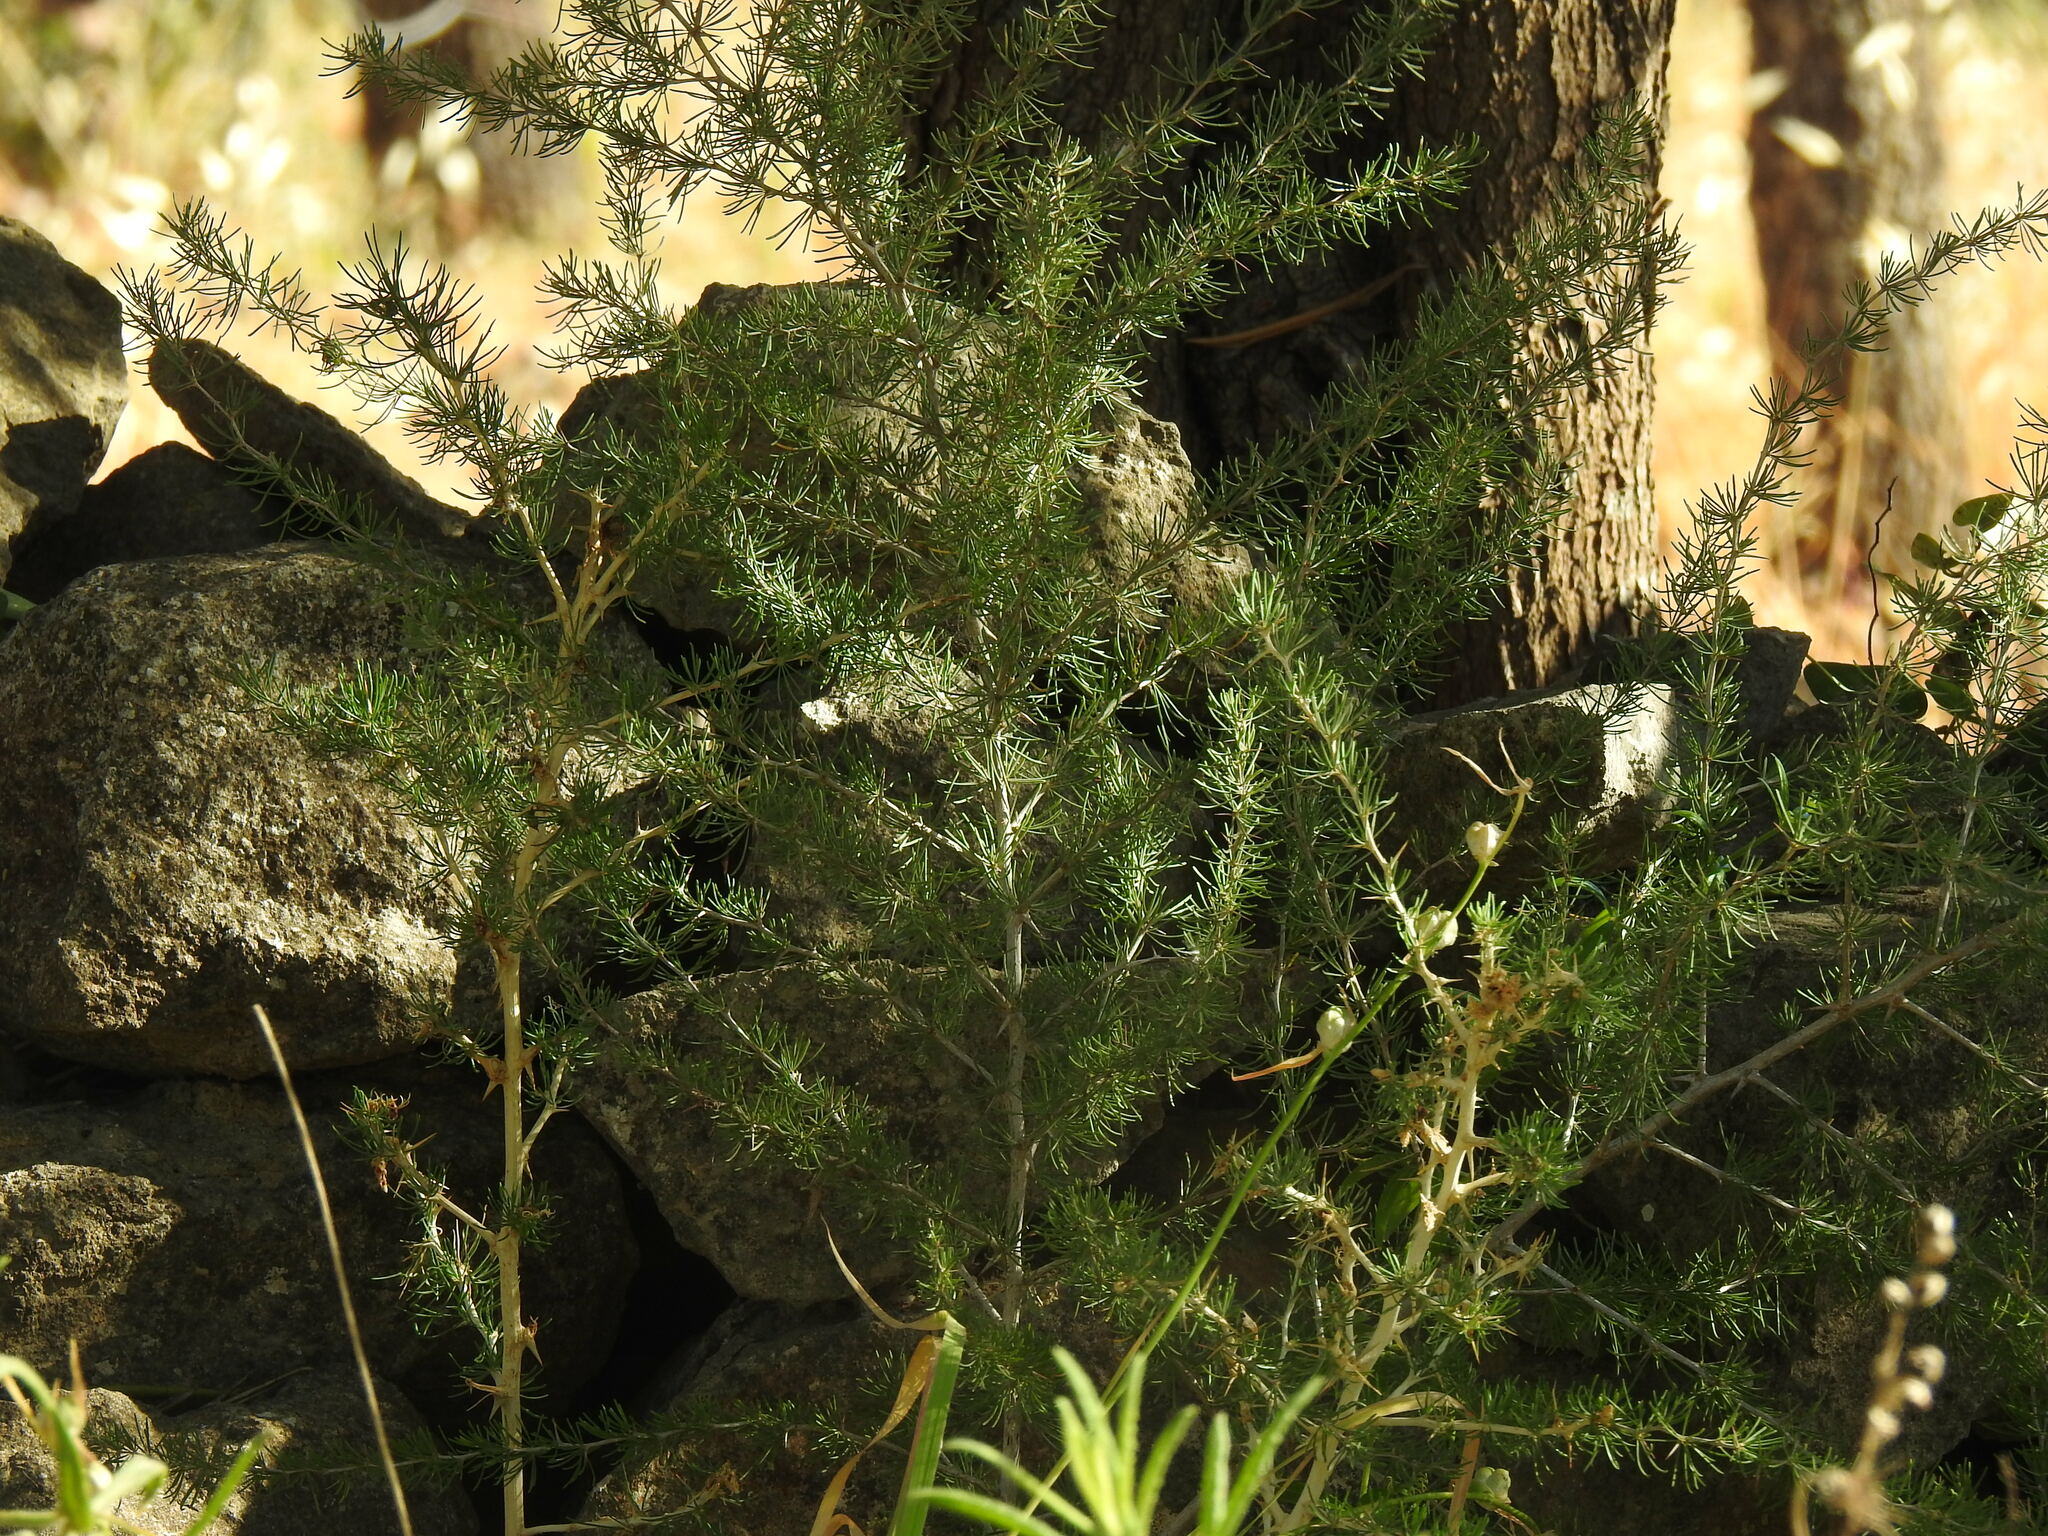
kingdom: Plantae
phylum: Tracheophyta
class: Liliopsida
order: Asparagales
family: Asparagaceae
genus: Asparagus
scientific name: Asparagus albus
